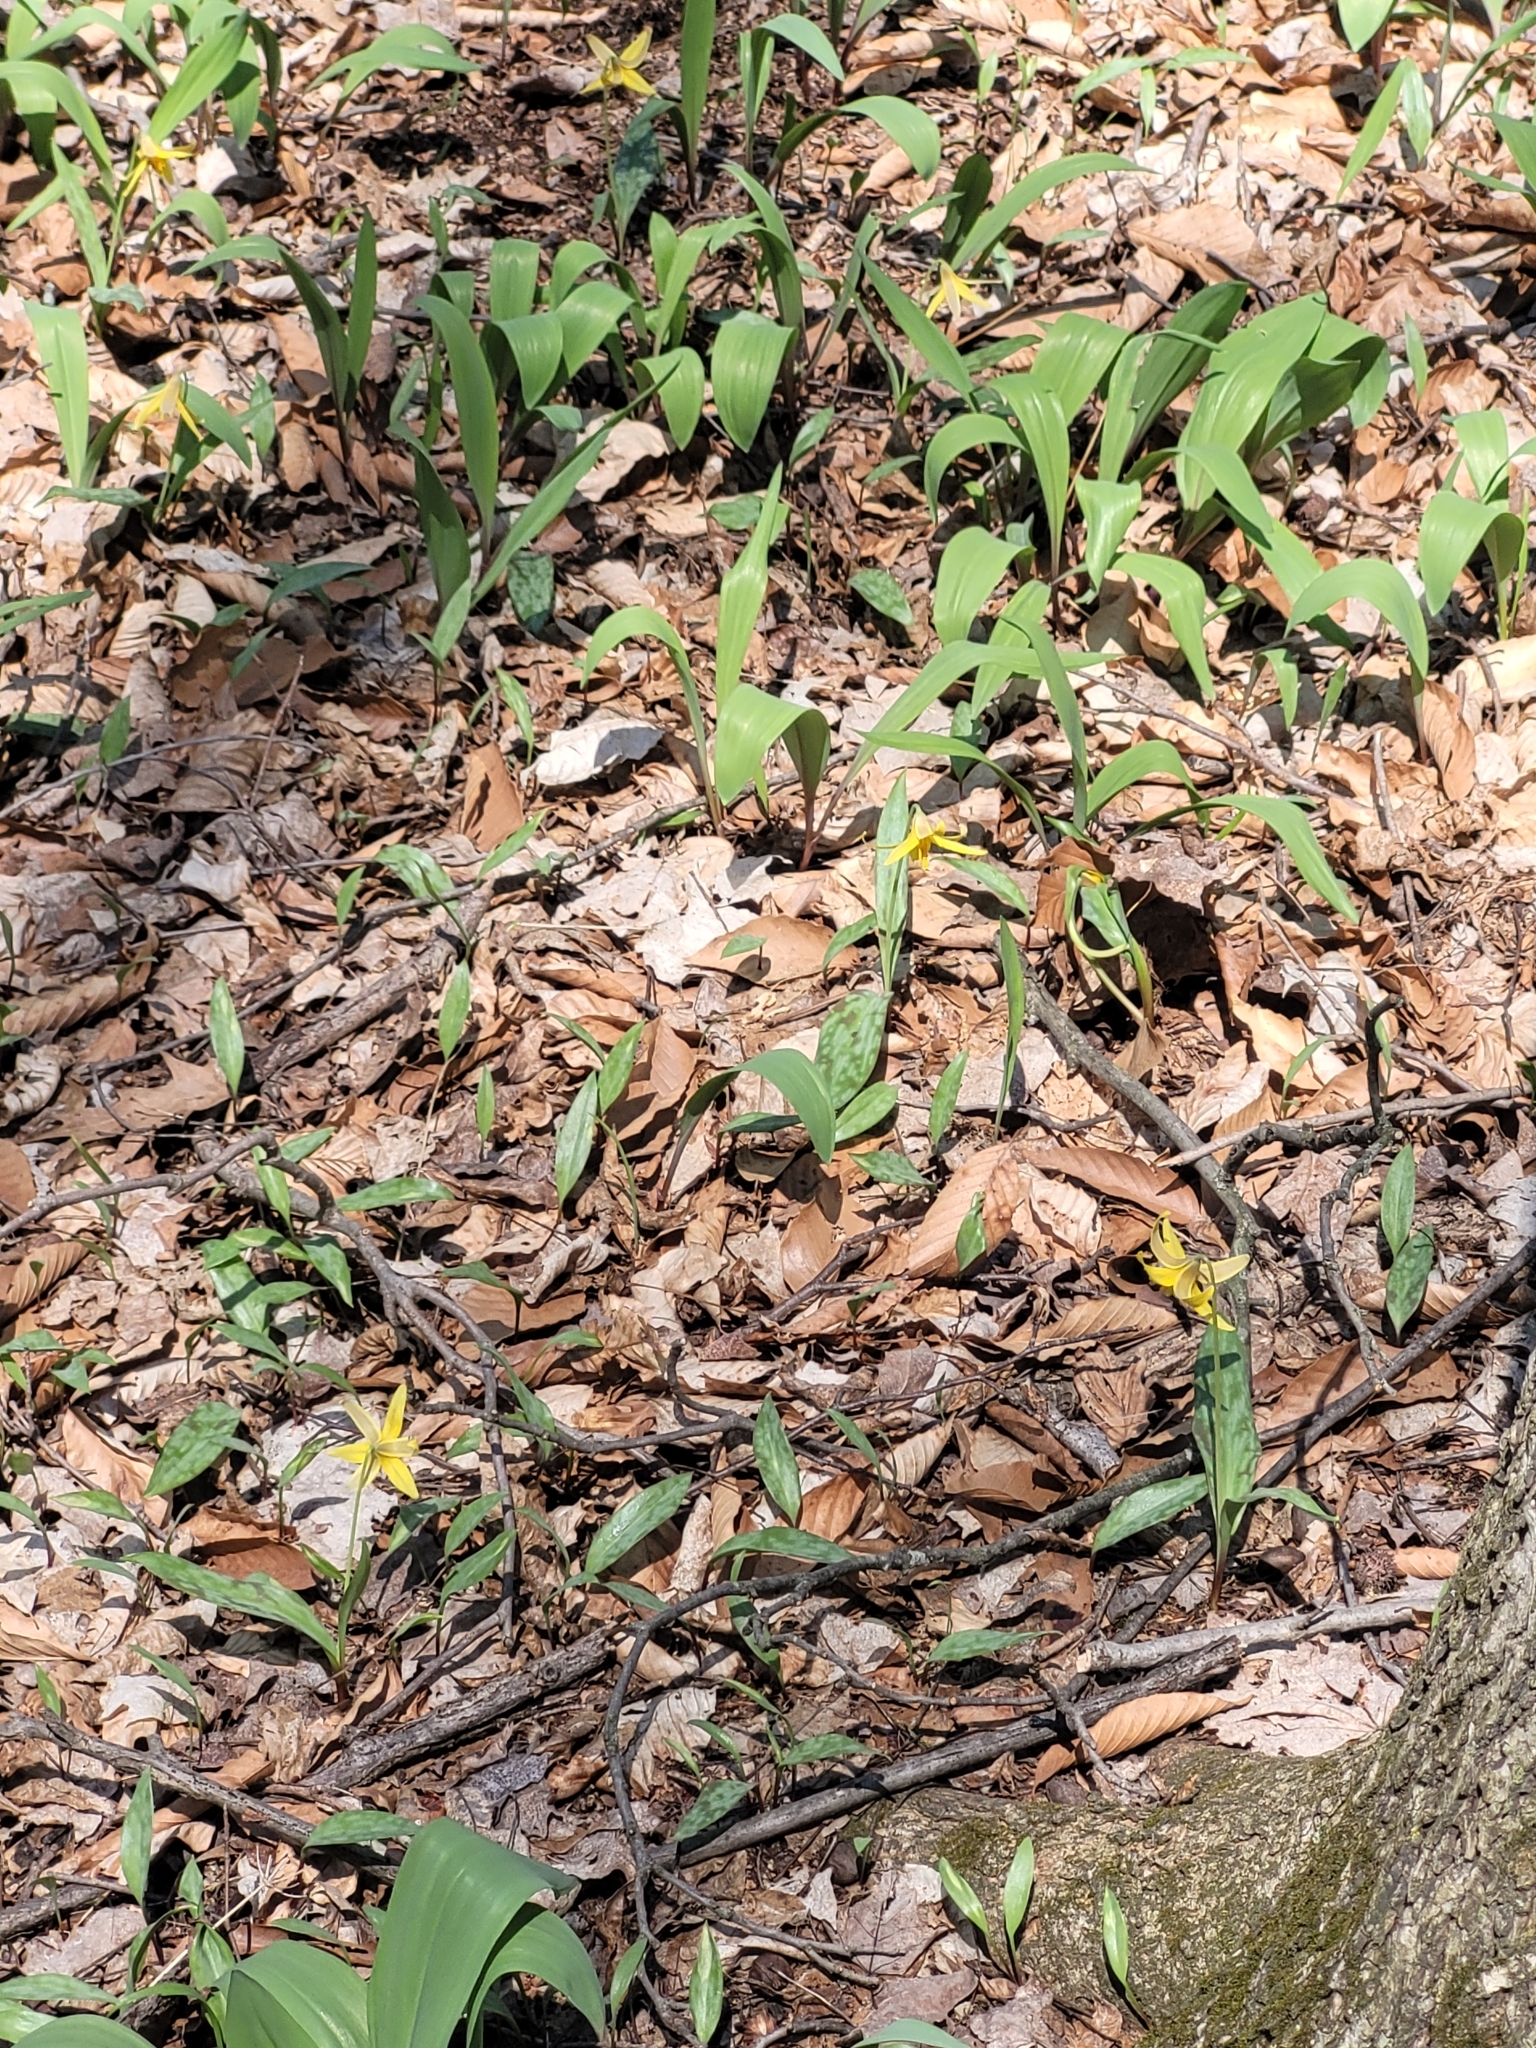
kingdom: Plantae
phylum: Tracheophyta
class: Liliopsida
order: Liliales
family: Liliaceae
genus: Erythronium
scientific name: Erythronium americanum
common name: Yellow adder's-tongue
